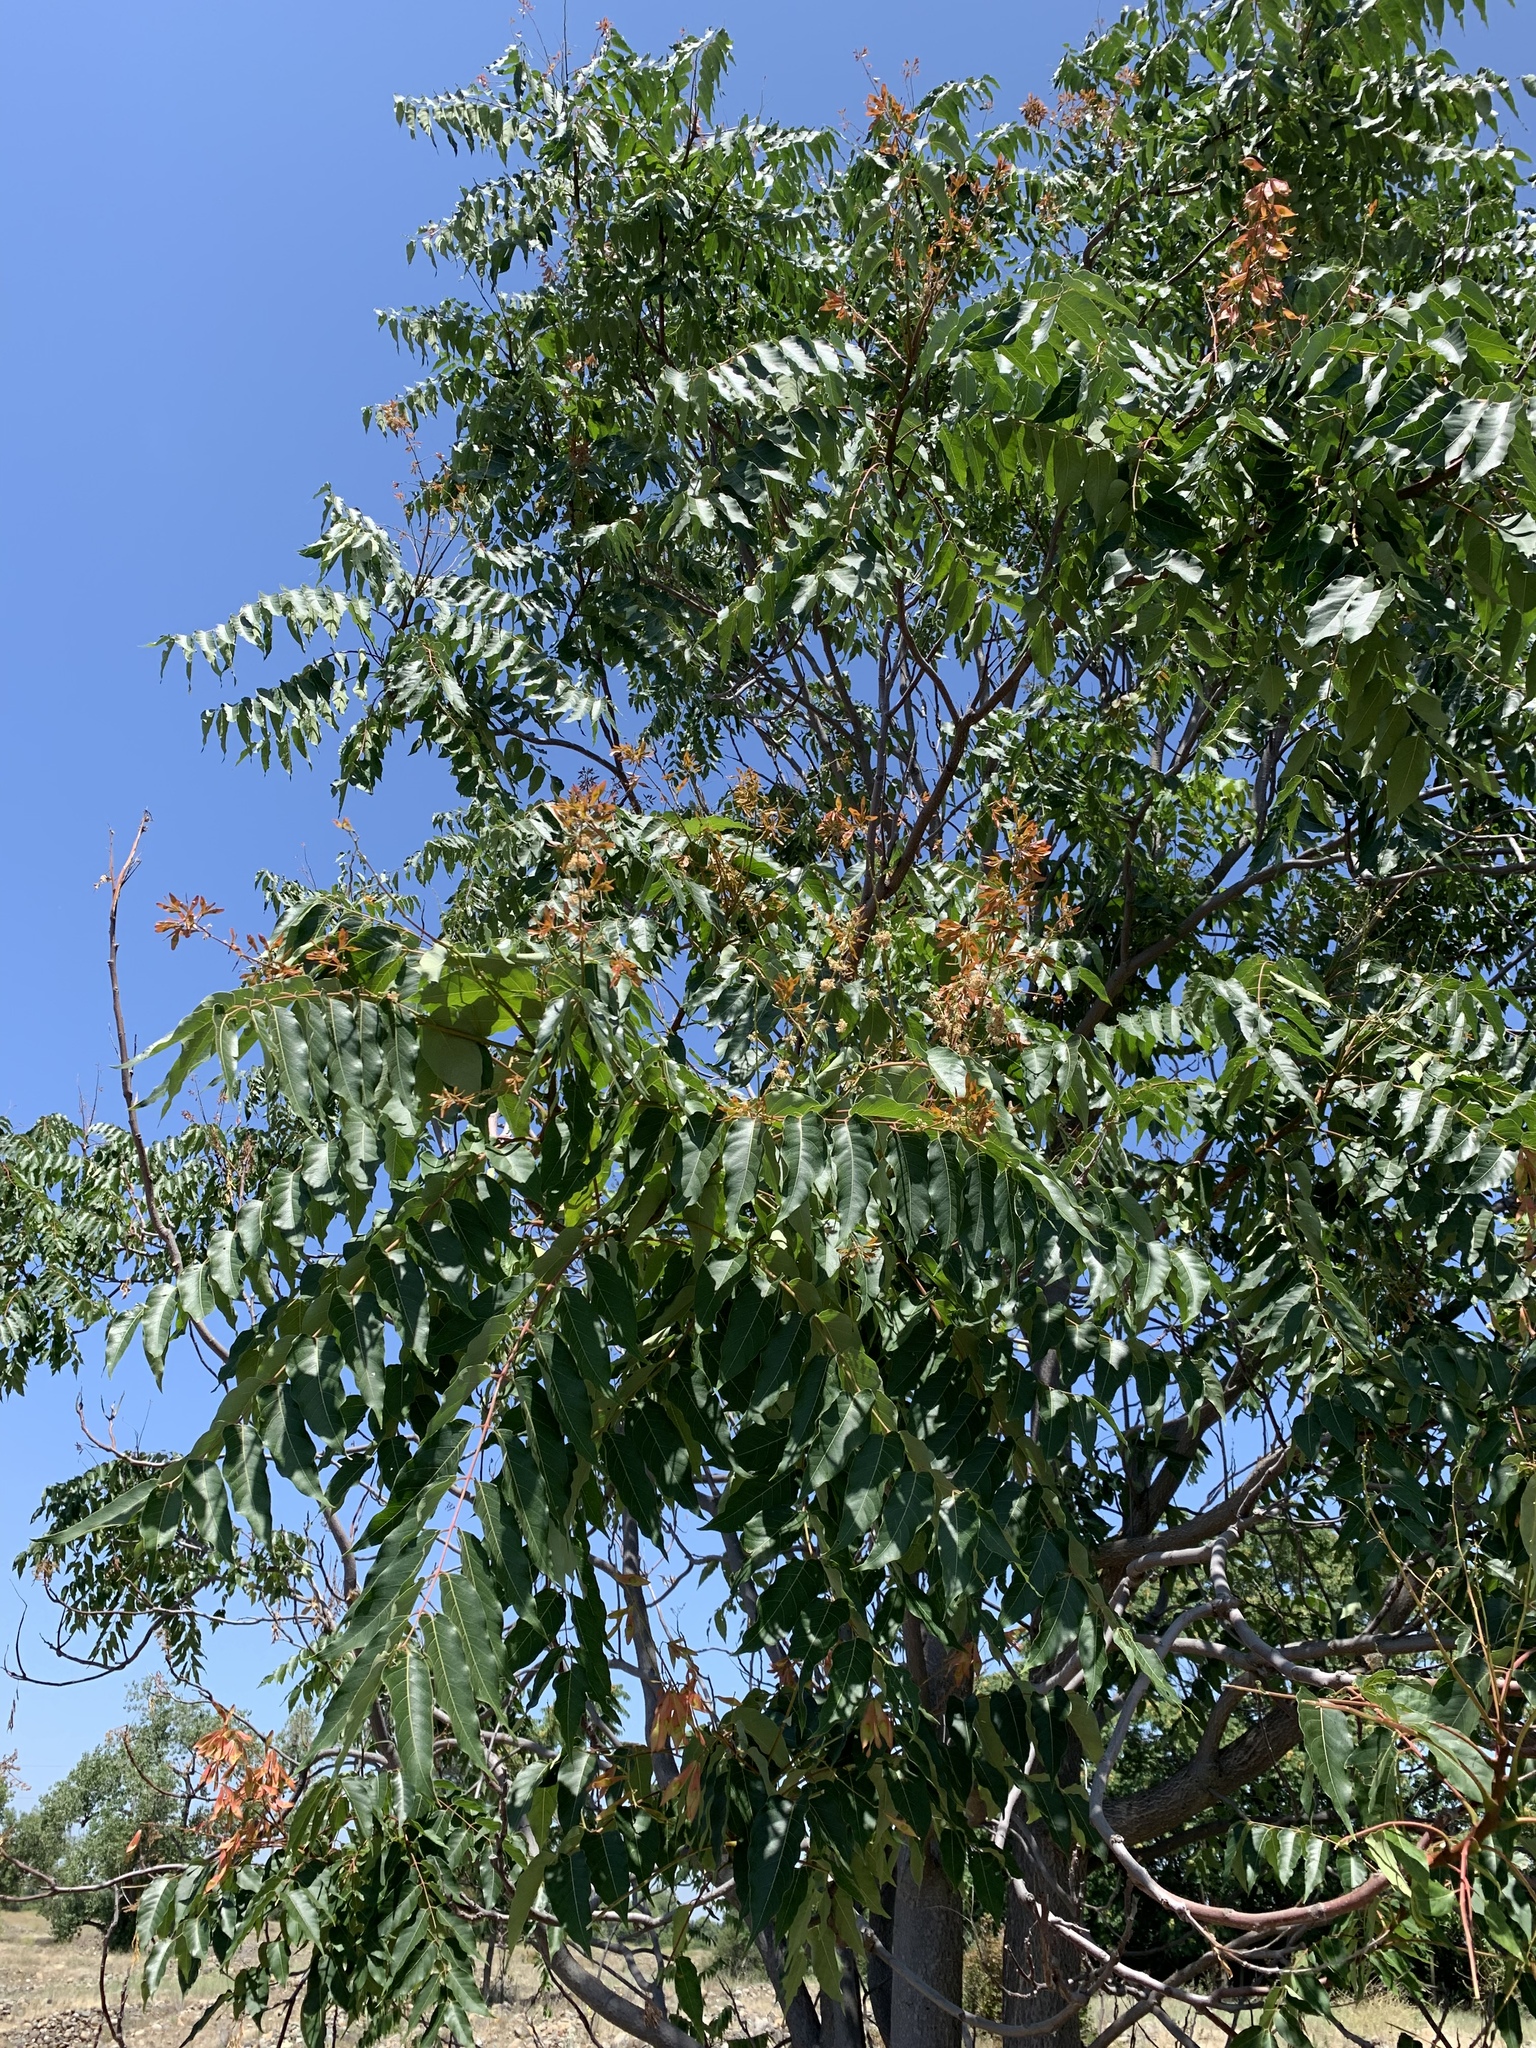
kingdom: Plantae
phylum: Tracheophyta
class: Magnoliopsida
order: Sapindales
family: Simaroubaceae
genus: Ailanthus
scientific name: Ailanthus altissima
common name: Tree-of-heaven
